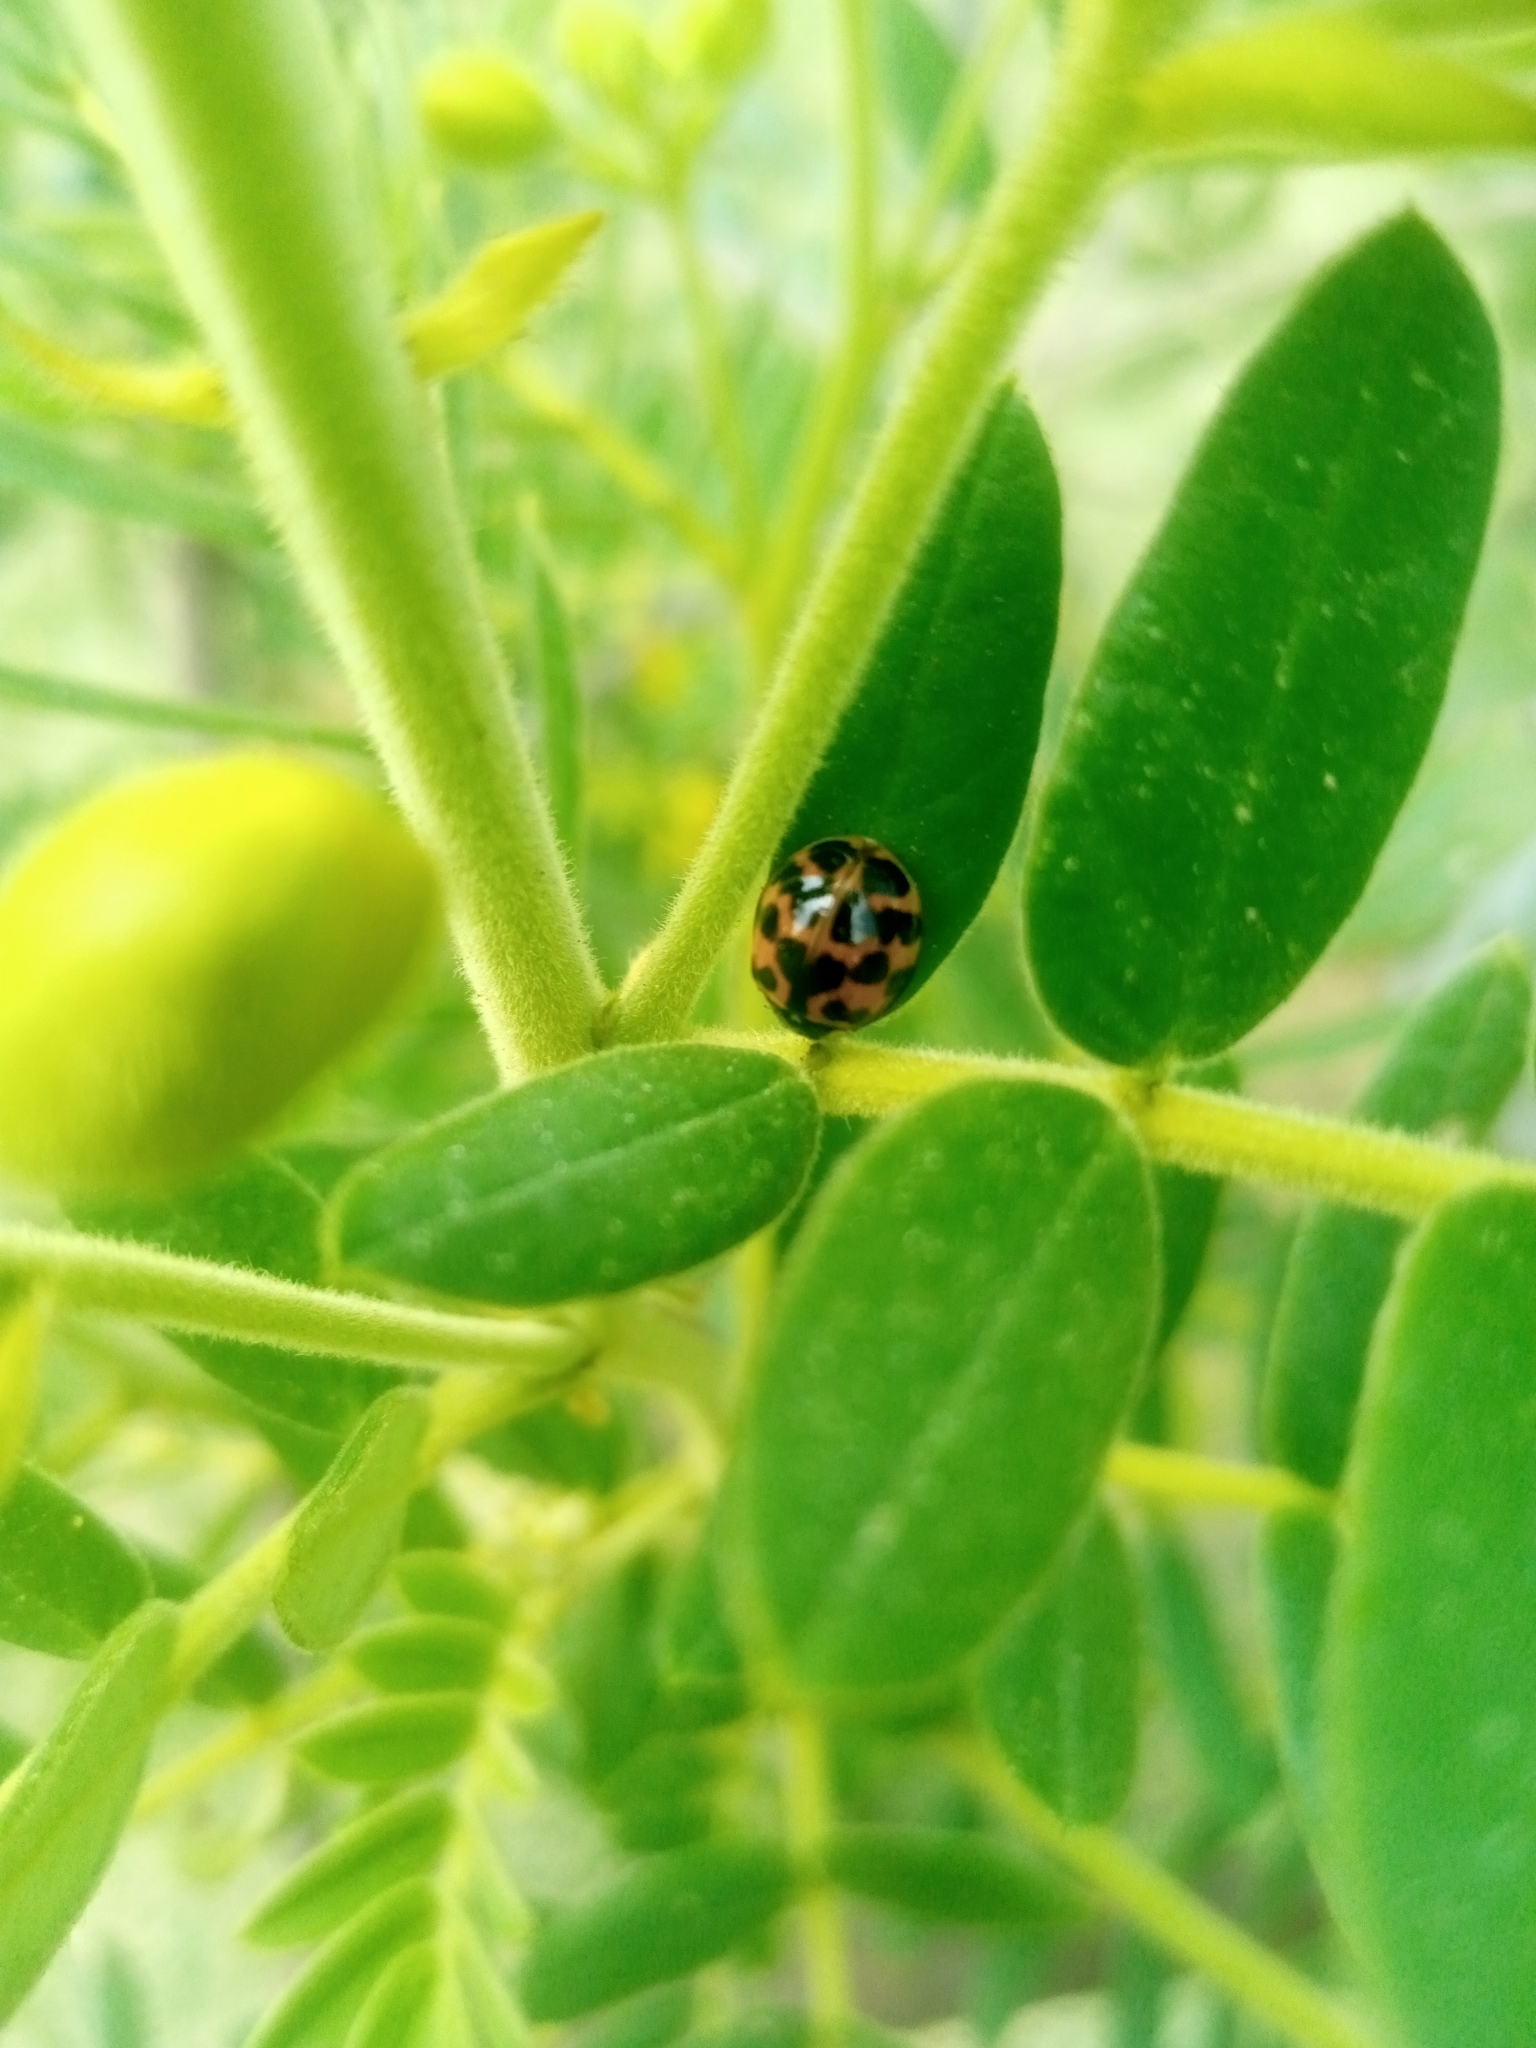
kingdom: Animalia
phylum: Arthropoda
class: Insecta
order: Coleoptera
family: Coccinellidae
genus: Harmonia
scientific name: Harmonia axyridis
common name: Harlequin ladybird
